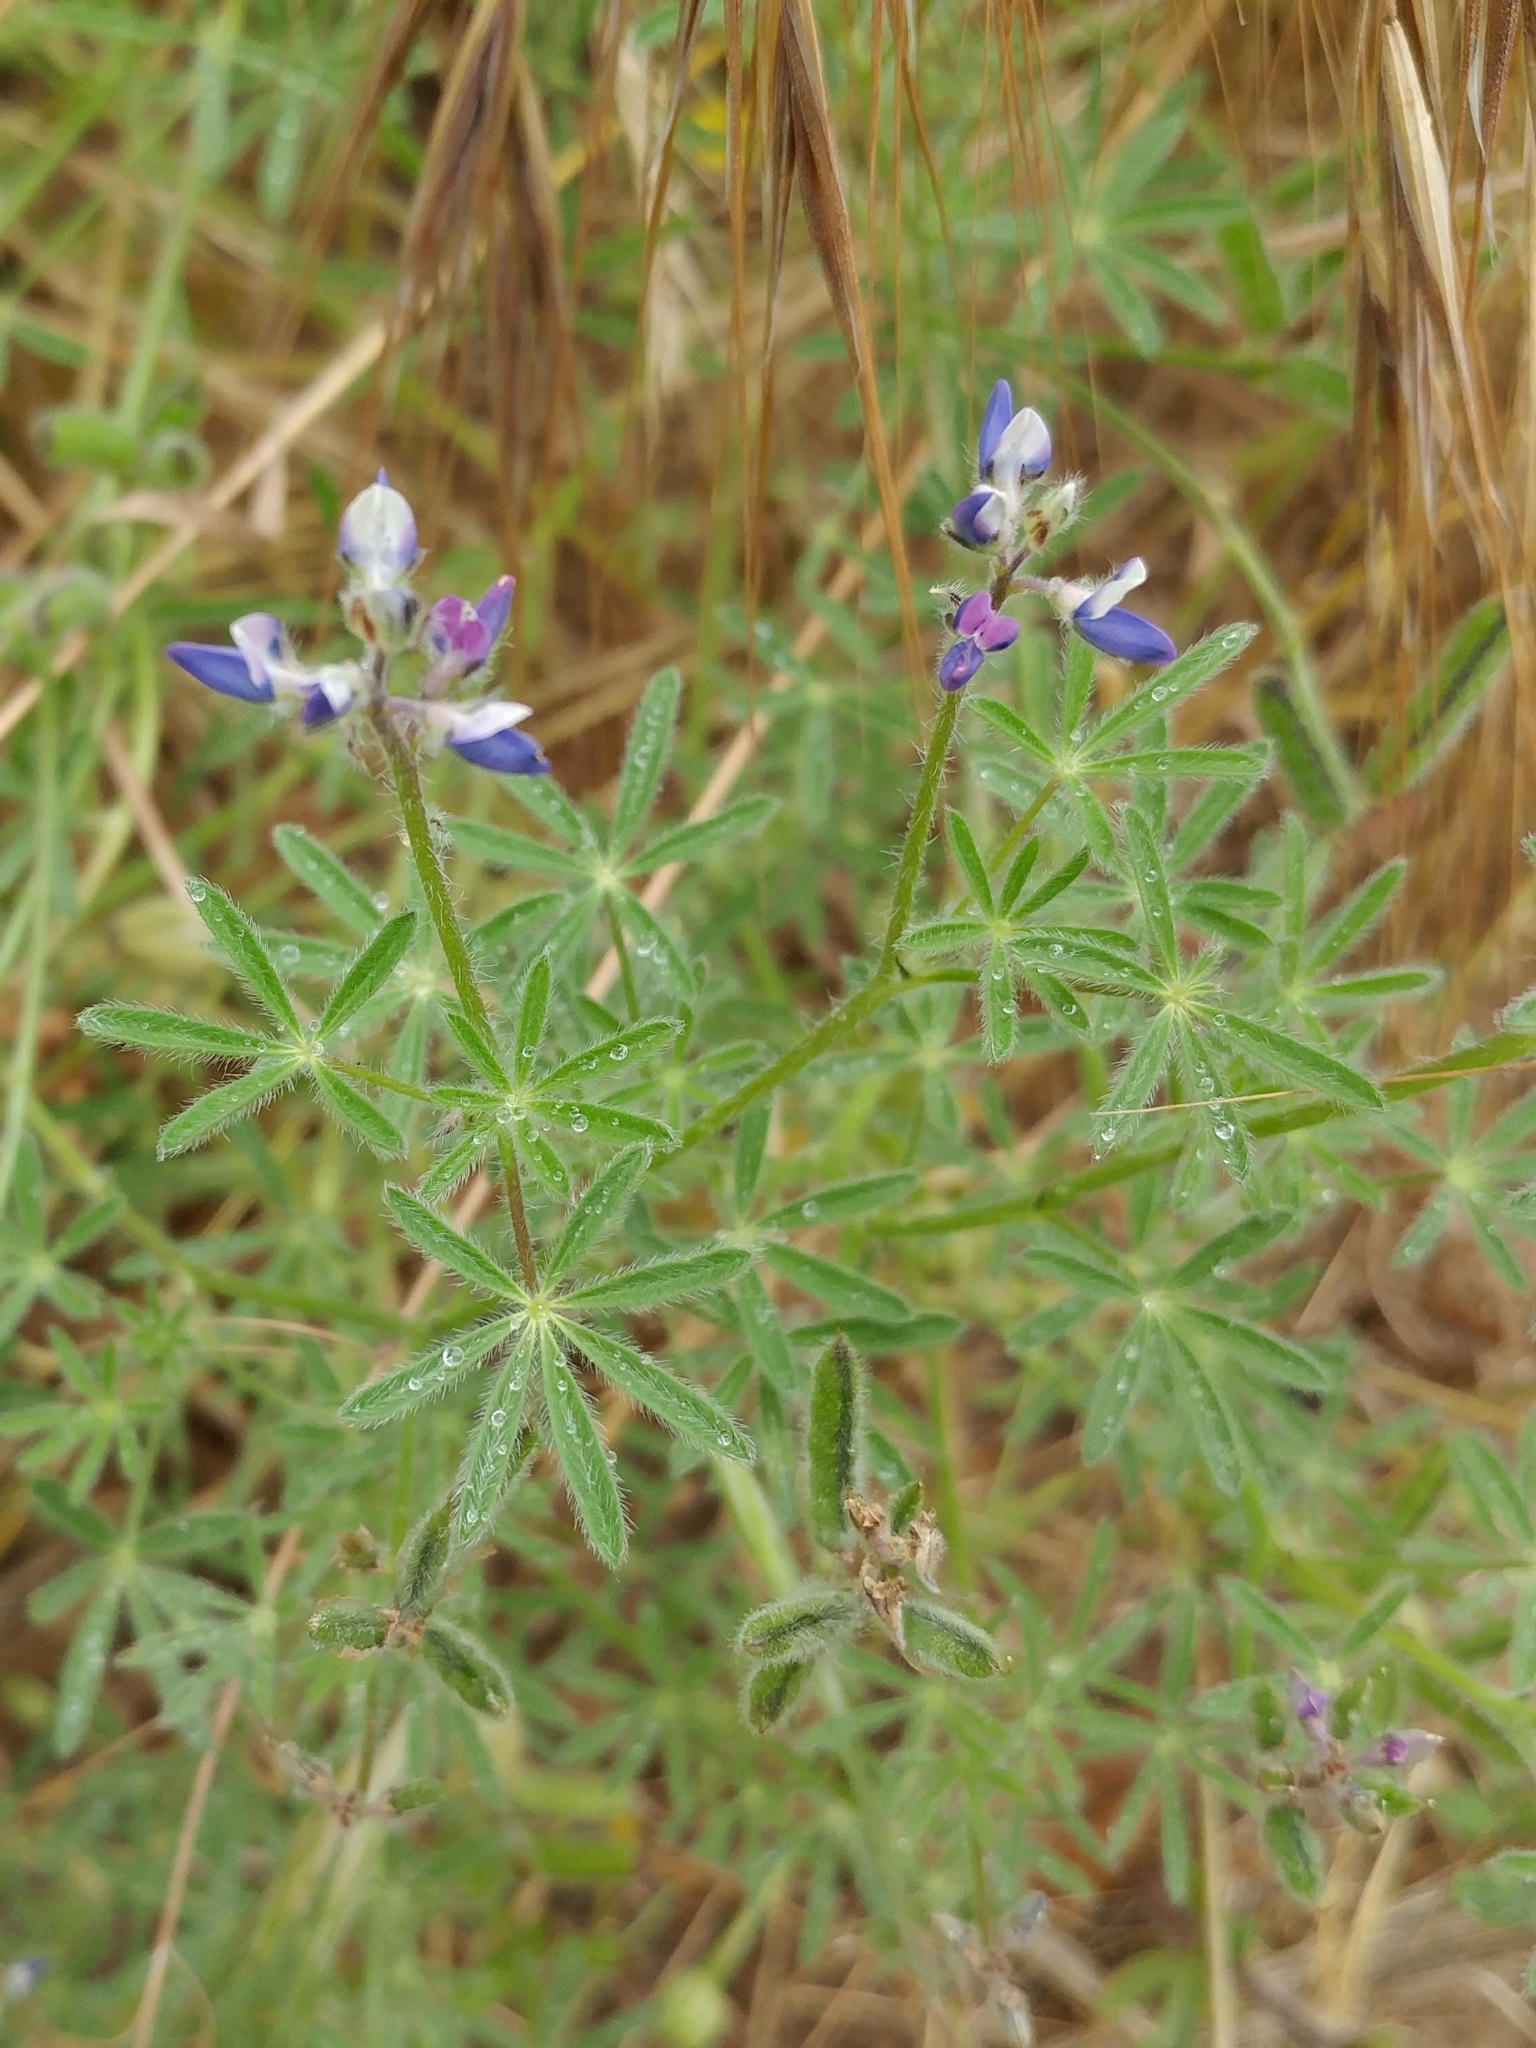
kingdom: Plantae
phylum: Tracheophyta
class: Magnoliopsida
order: Fabales
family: Fabaceae
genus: Lupinus
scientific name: Lupinus bicolor
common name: Miniature lupine
